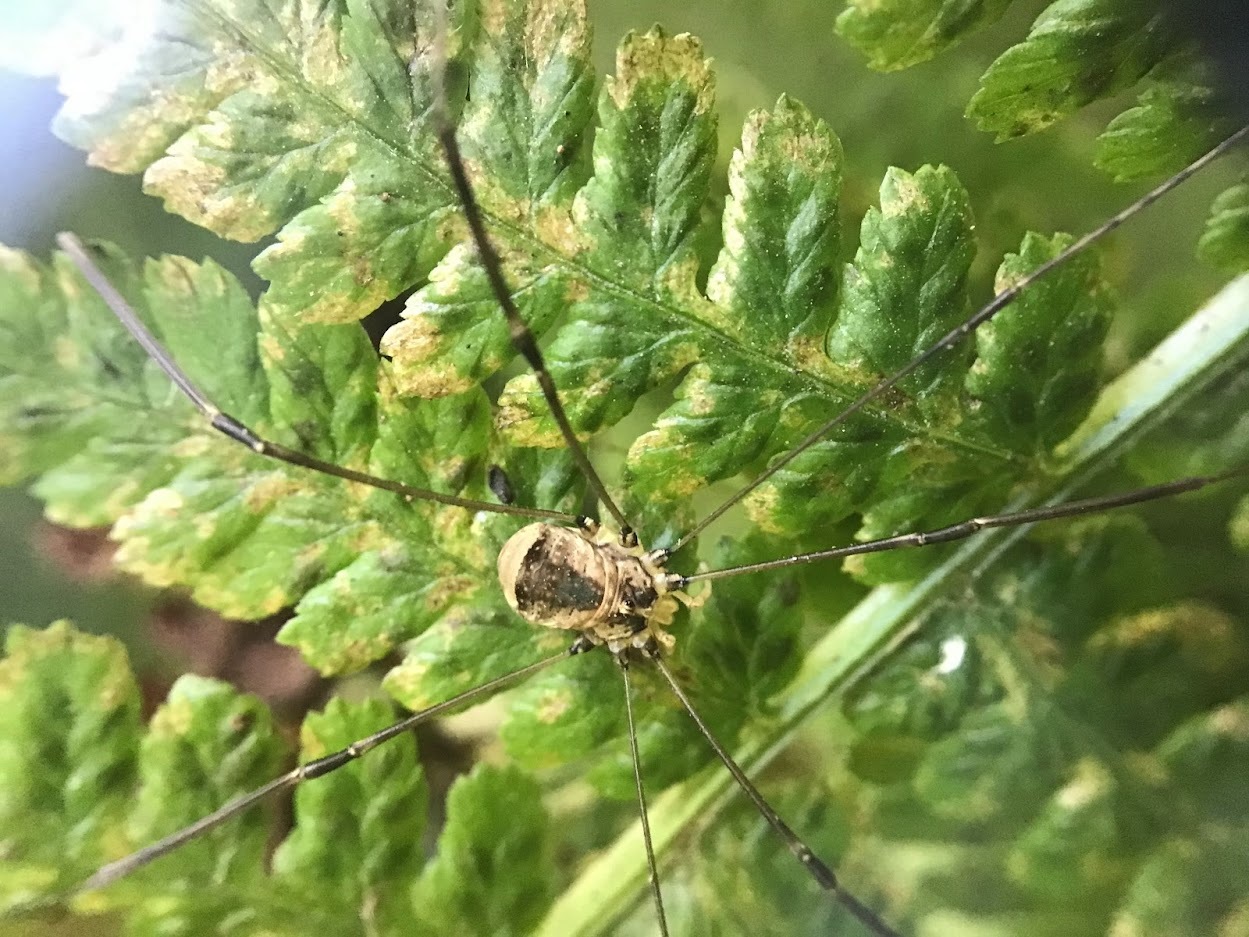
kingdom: Animalia
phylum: Arthropoda
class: Arachnida
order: Opiliones
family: Sclerosomatidae
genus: Leiobunum
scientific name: Leiobunum blackwalli
